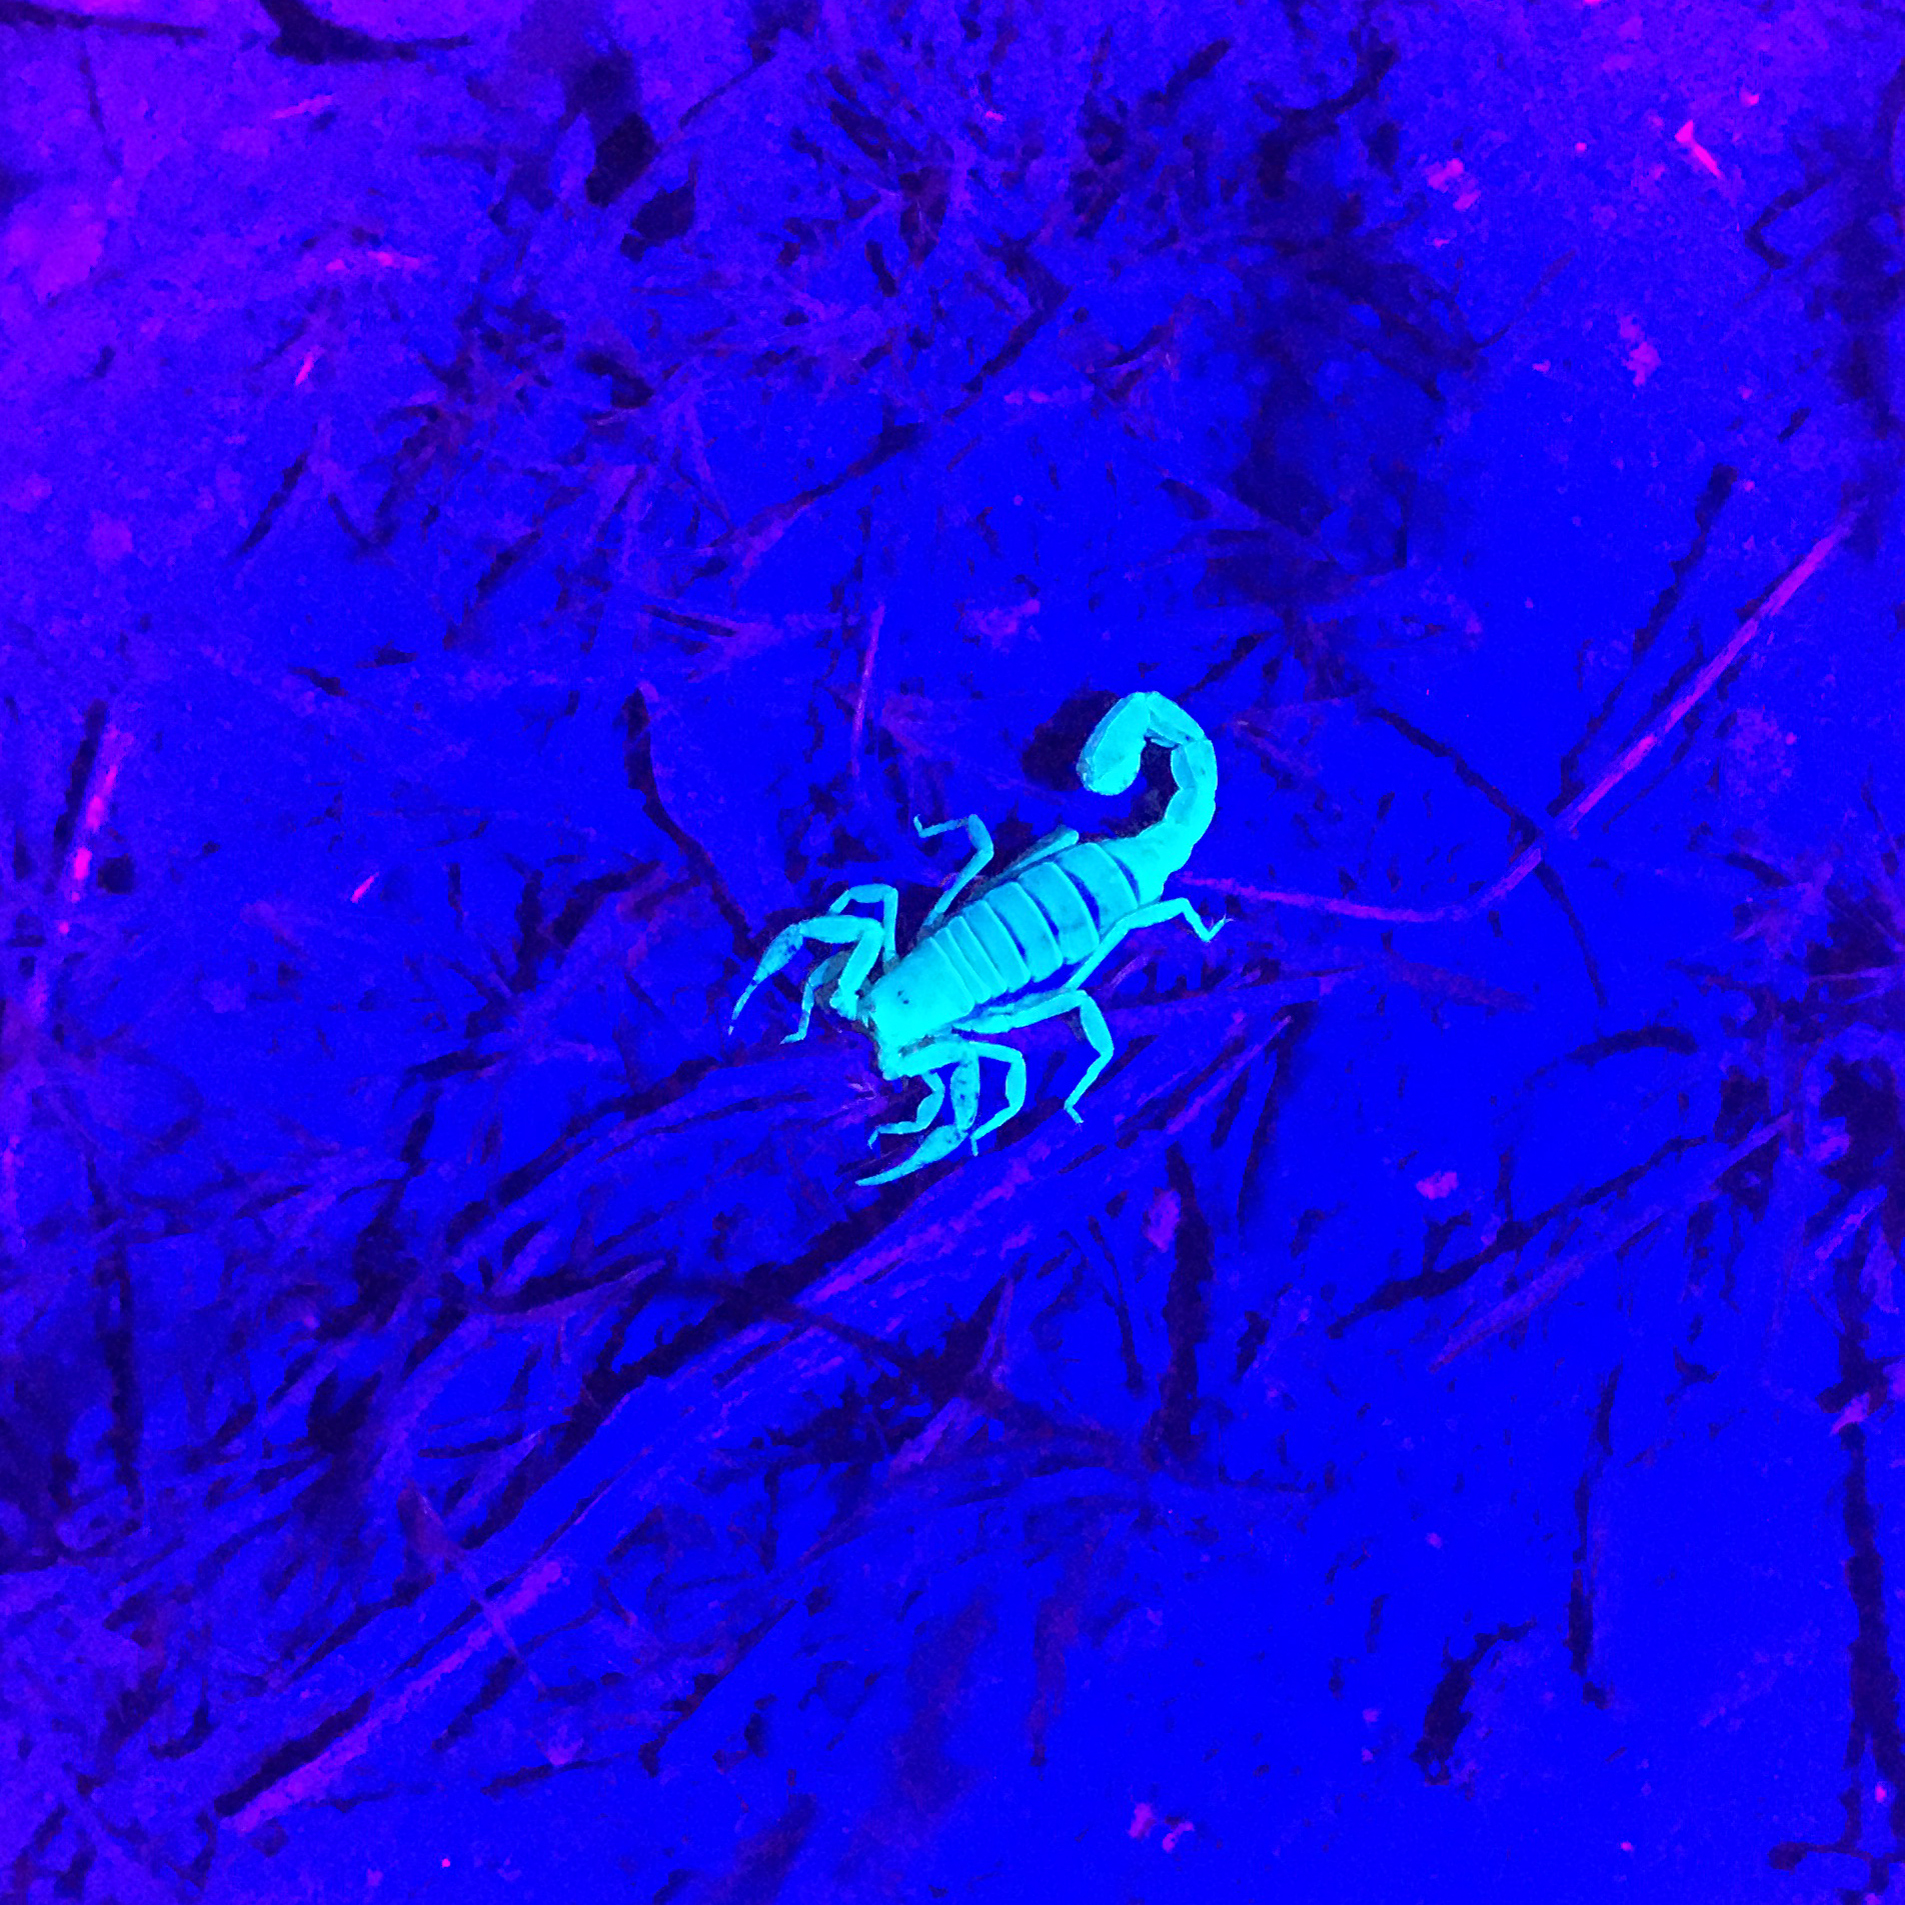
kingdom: Animalia
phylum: Arthropoda
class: Arachnida
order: Scorpiones
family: Vaejovidae
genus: Paravaejovis
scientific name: Paravaejovis confusus
